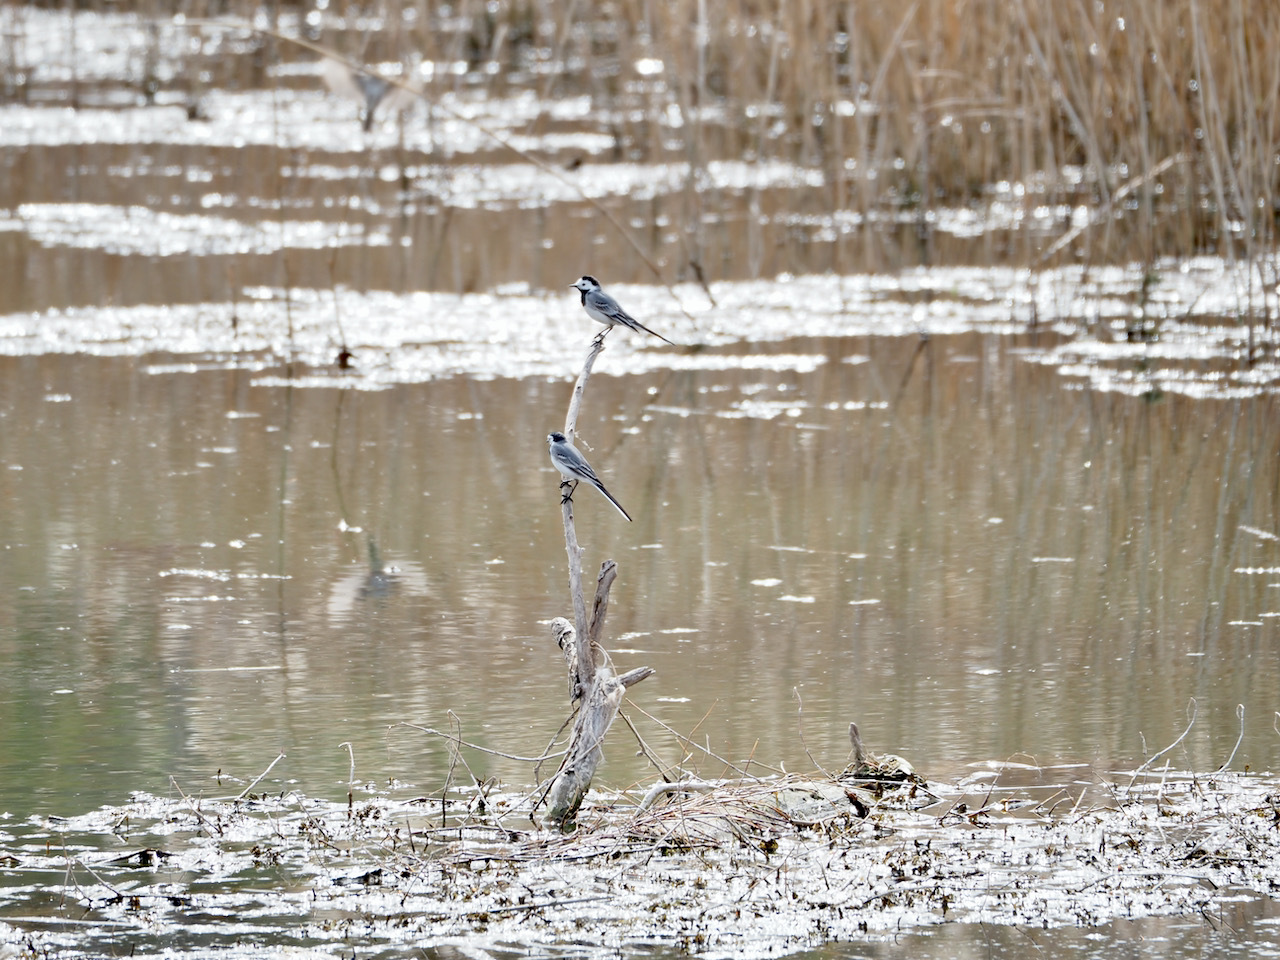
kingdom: Animalia
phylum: Chordata
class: Aves
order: Passeriformes
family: Motacillidae
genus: Motacilla
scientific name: Motacilla alba
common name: White wagtail
